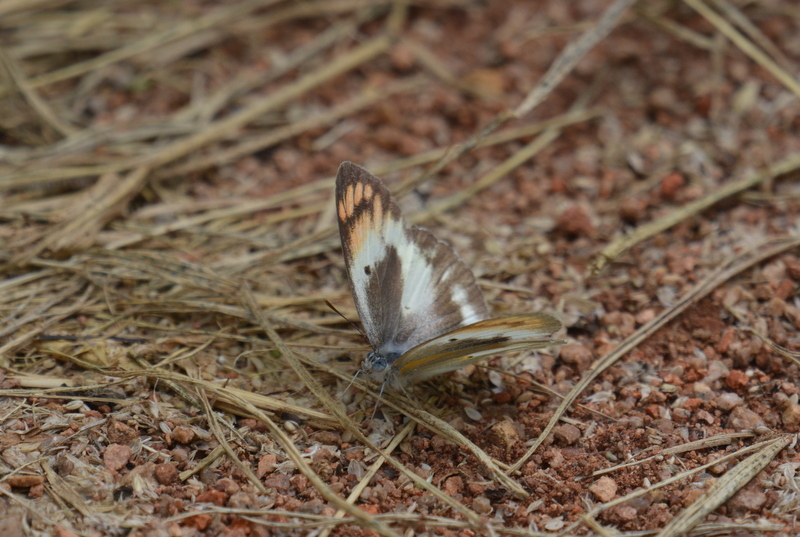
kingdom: Animalia
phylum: Arthropoda
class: Insecta
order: Lepidoptera
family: Pieridae
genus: Colotis
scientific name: Colotis antevippe
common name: Large orange tip
